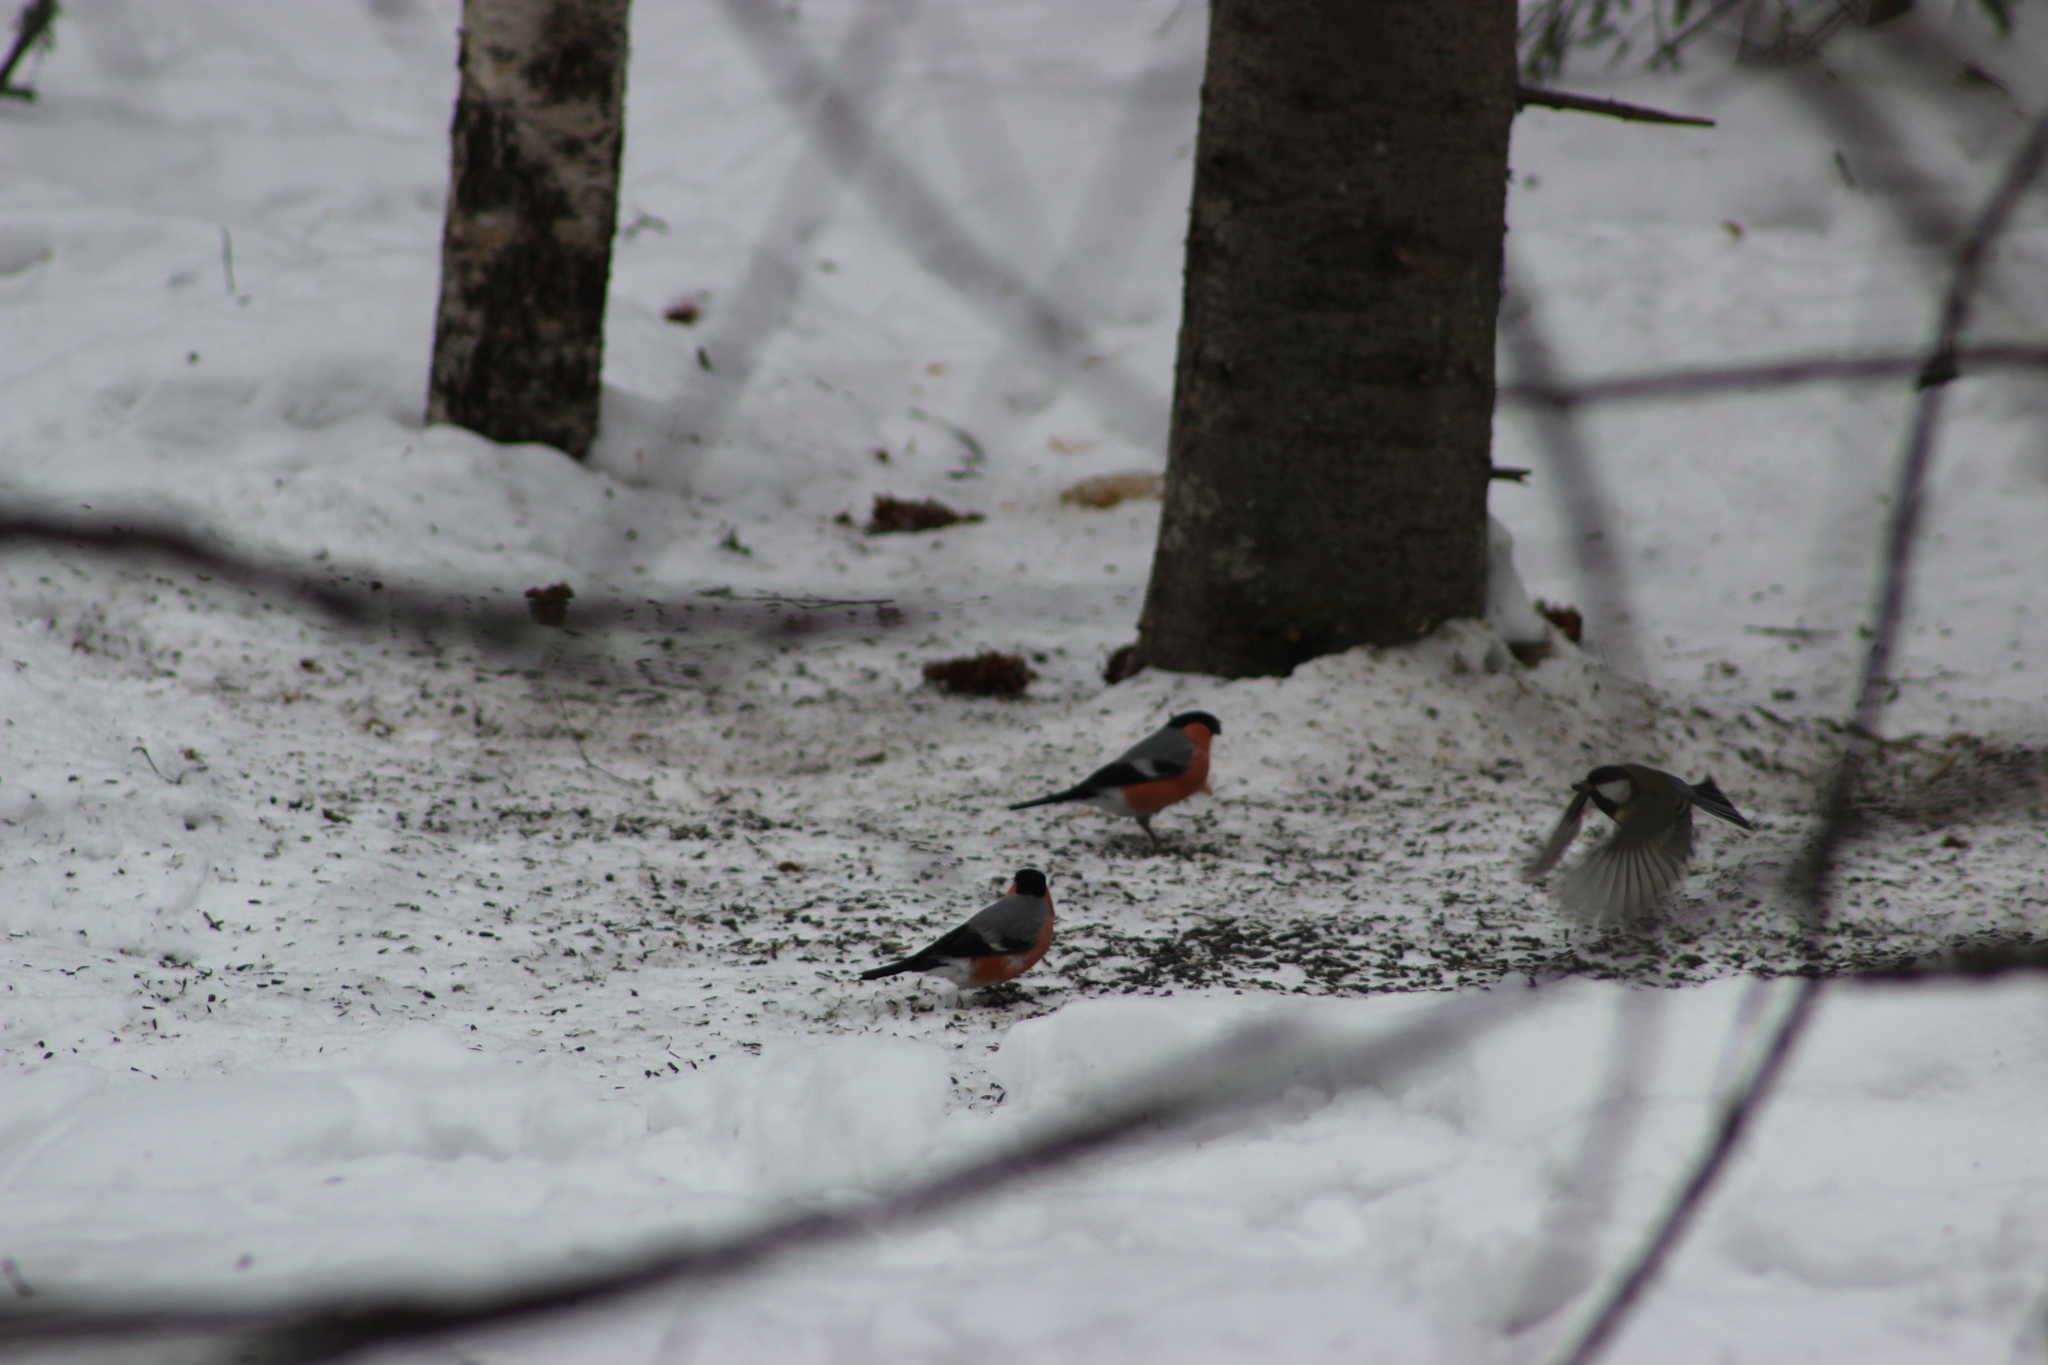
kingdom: Animalia
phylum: Chordata
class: Aves
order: Passeriformes
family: Fringillidae
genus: Pyrrhula
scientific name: Pyrrhula pyrrhula
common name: Eurasian bullfinch
